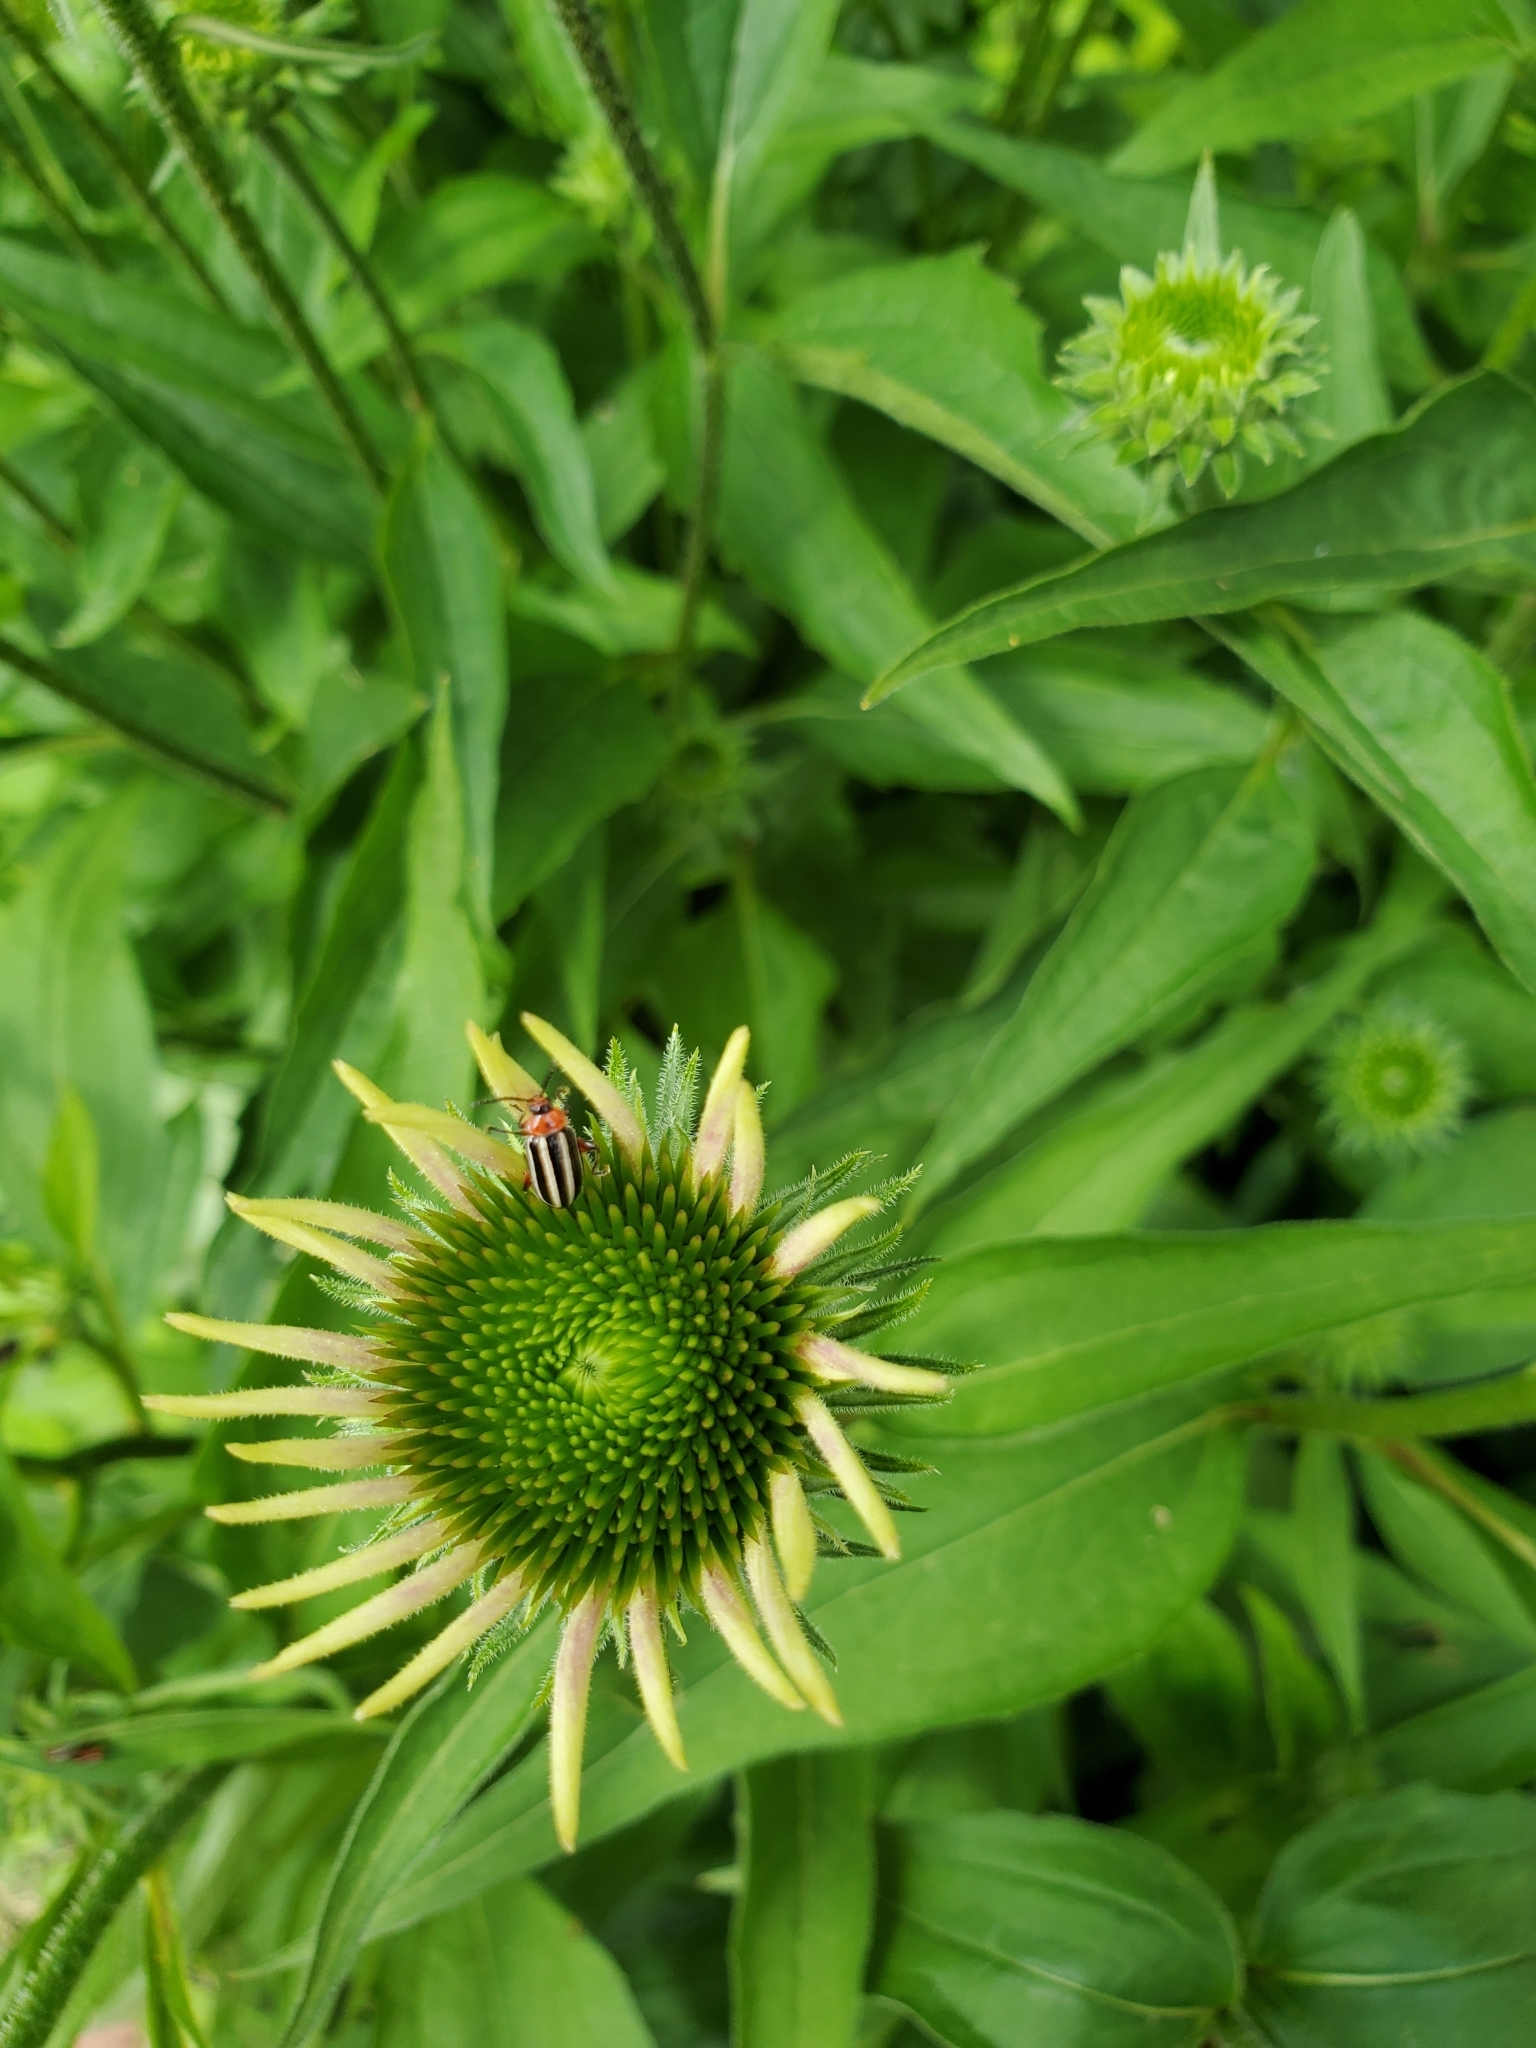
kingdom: Animalia
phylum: Arthropoda
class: Insecta
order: Coleoptera
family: Chrysomelidae
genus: Disonycha
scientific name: Disonycha glabrata
